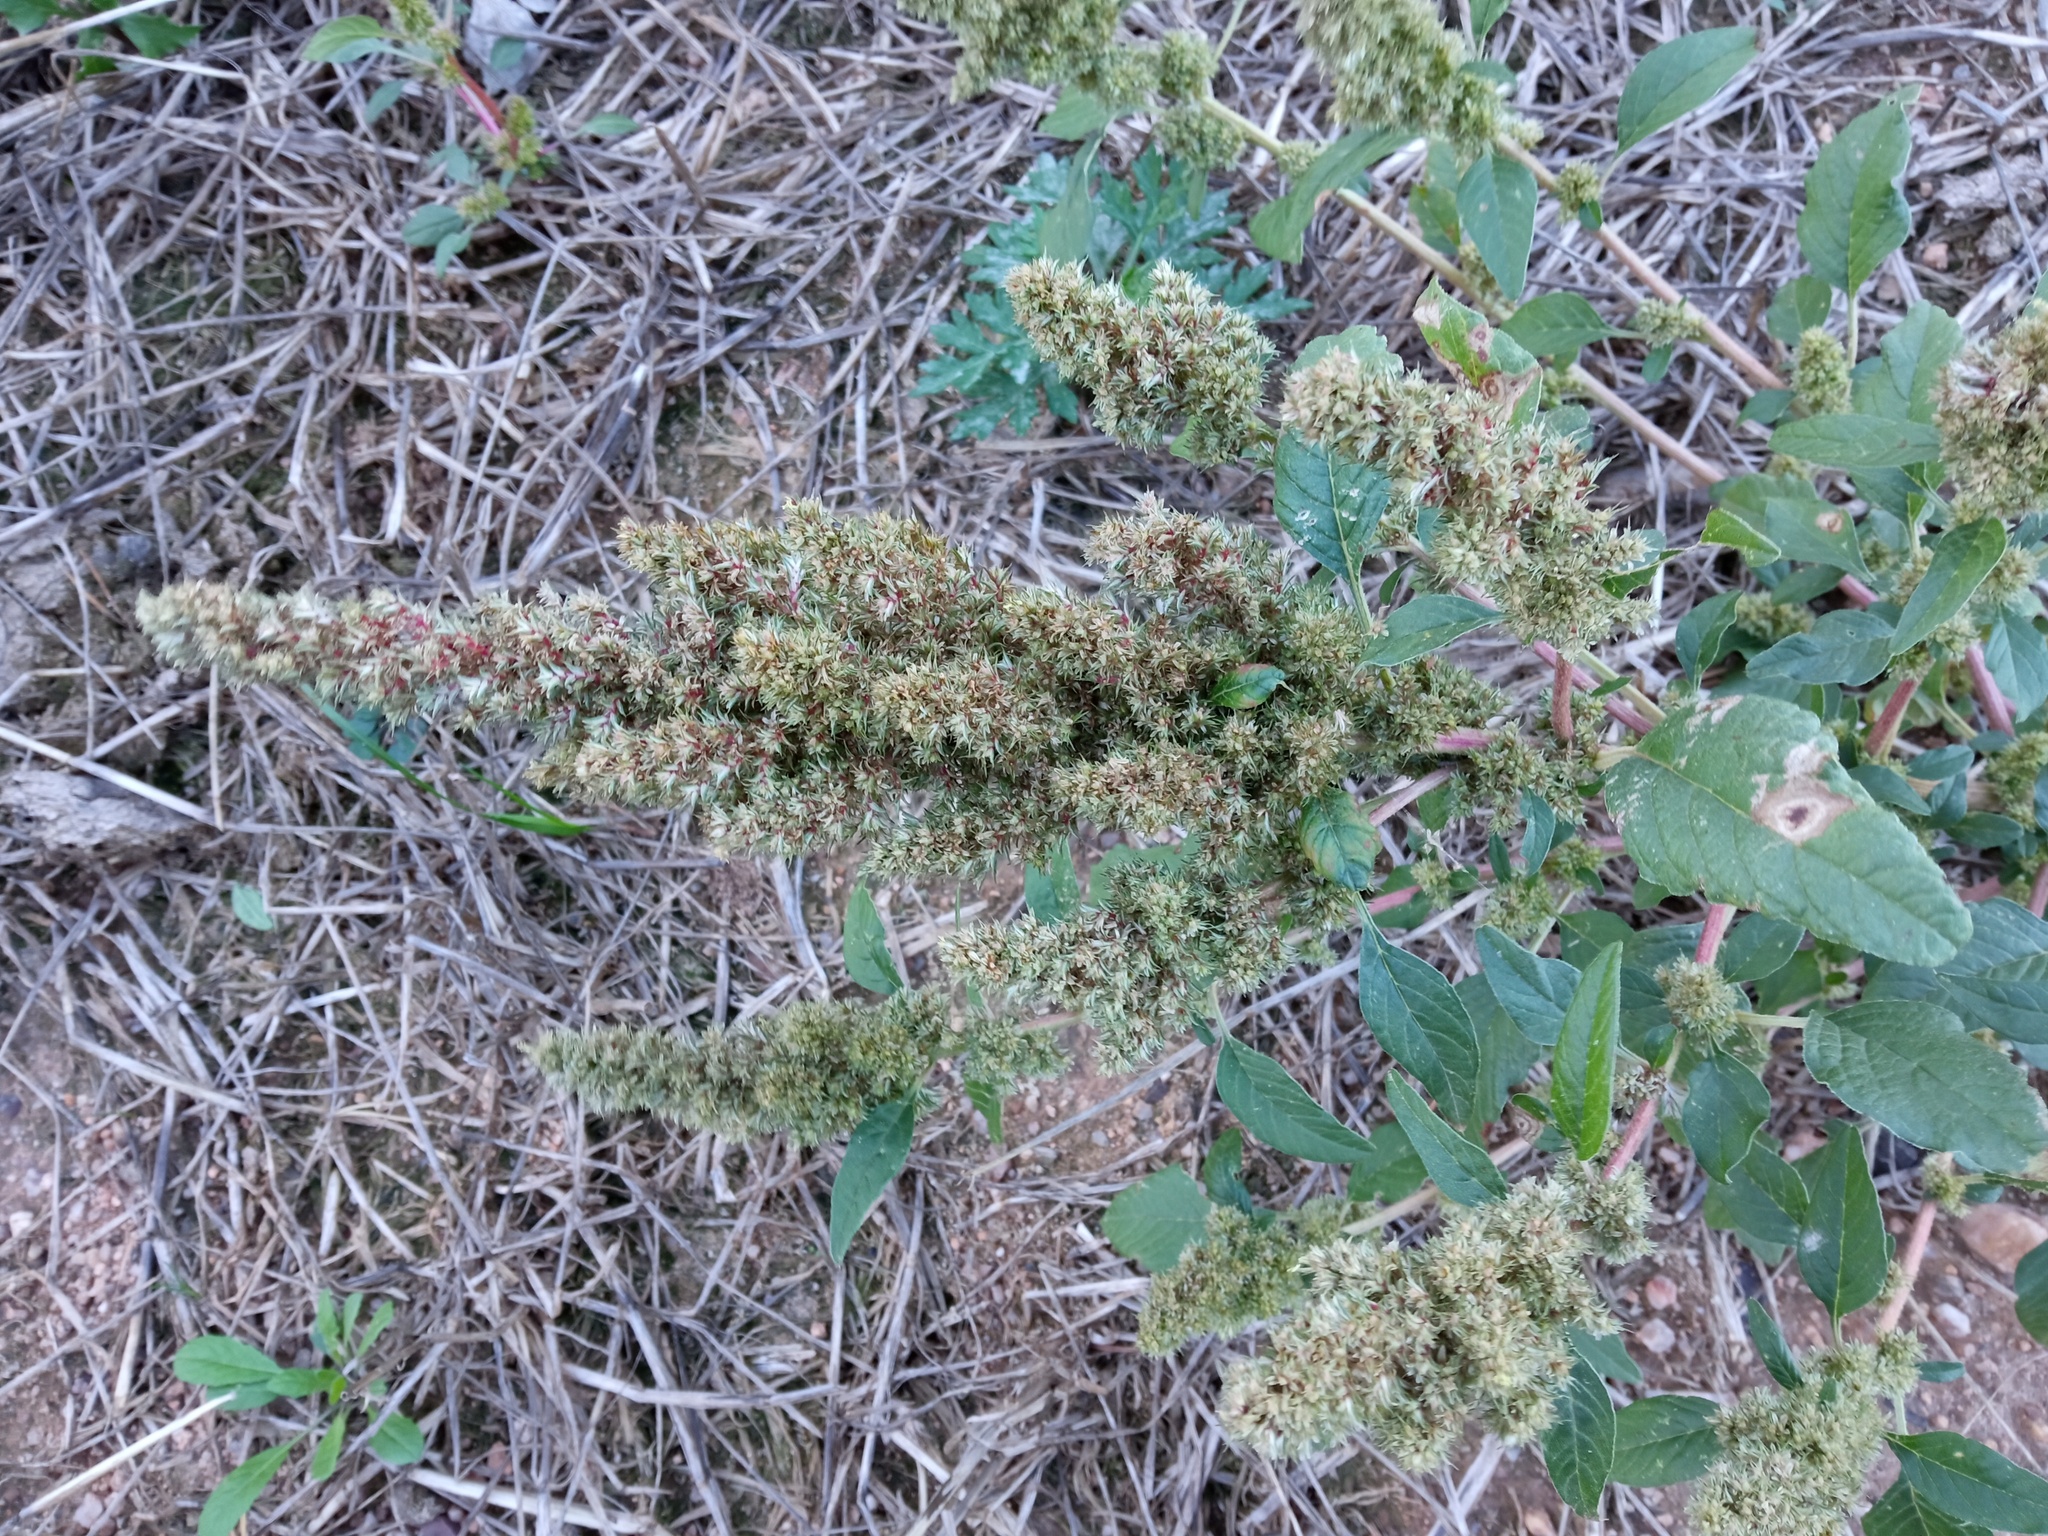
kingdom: Plantae
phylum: Tracheophyta
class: Magnoliopsida
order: Caryophyllales
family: Amaranthaceae
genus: Amaranthus
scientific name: Amaranthus retroflexus
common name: Redroot amaranth
